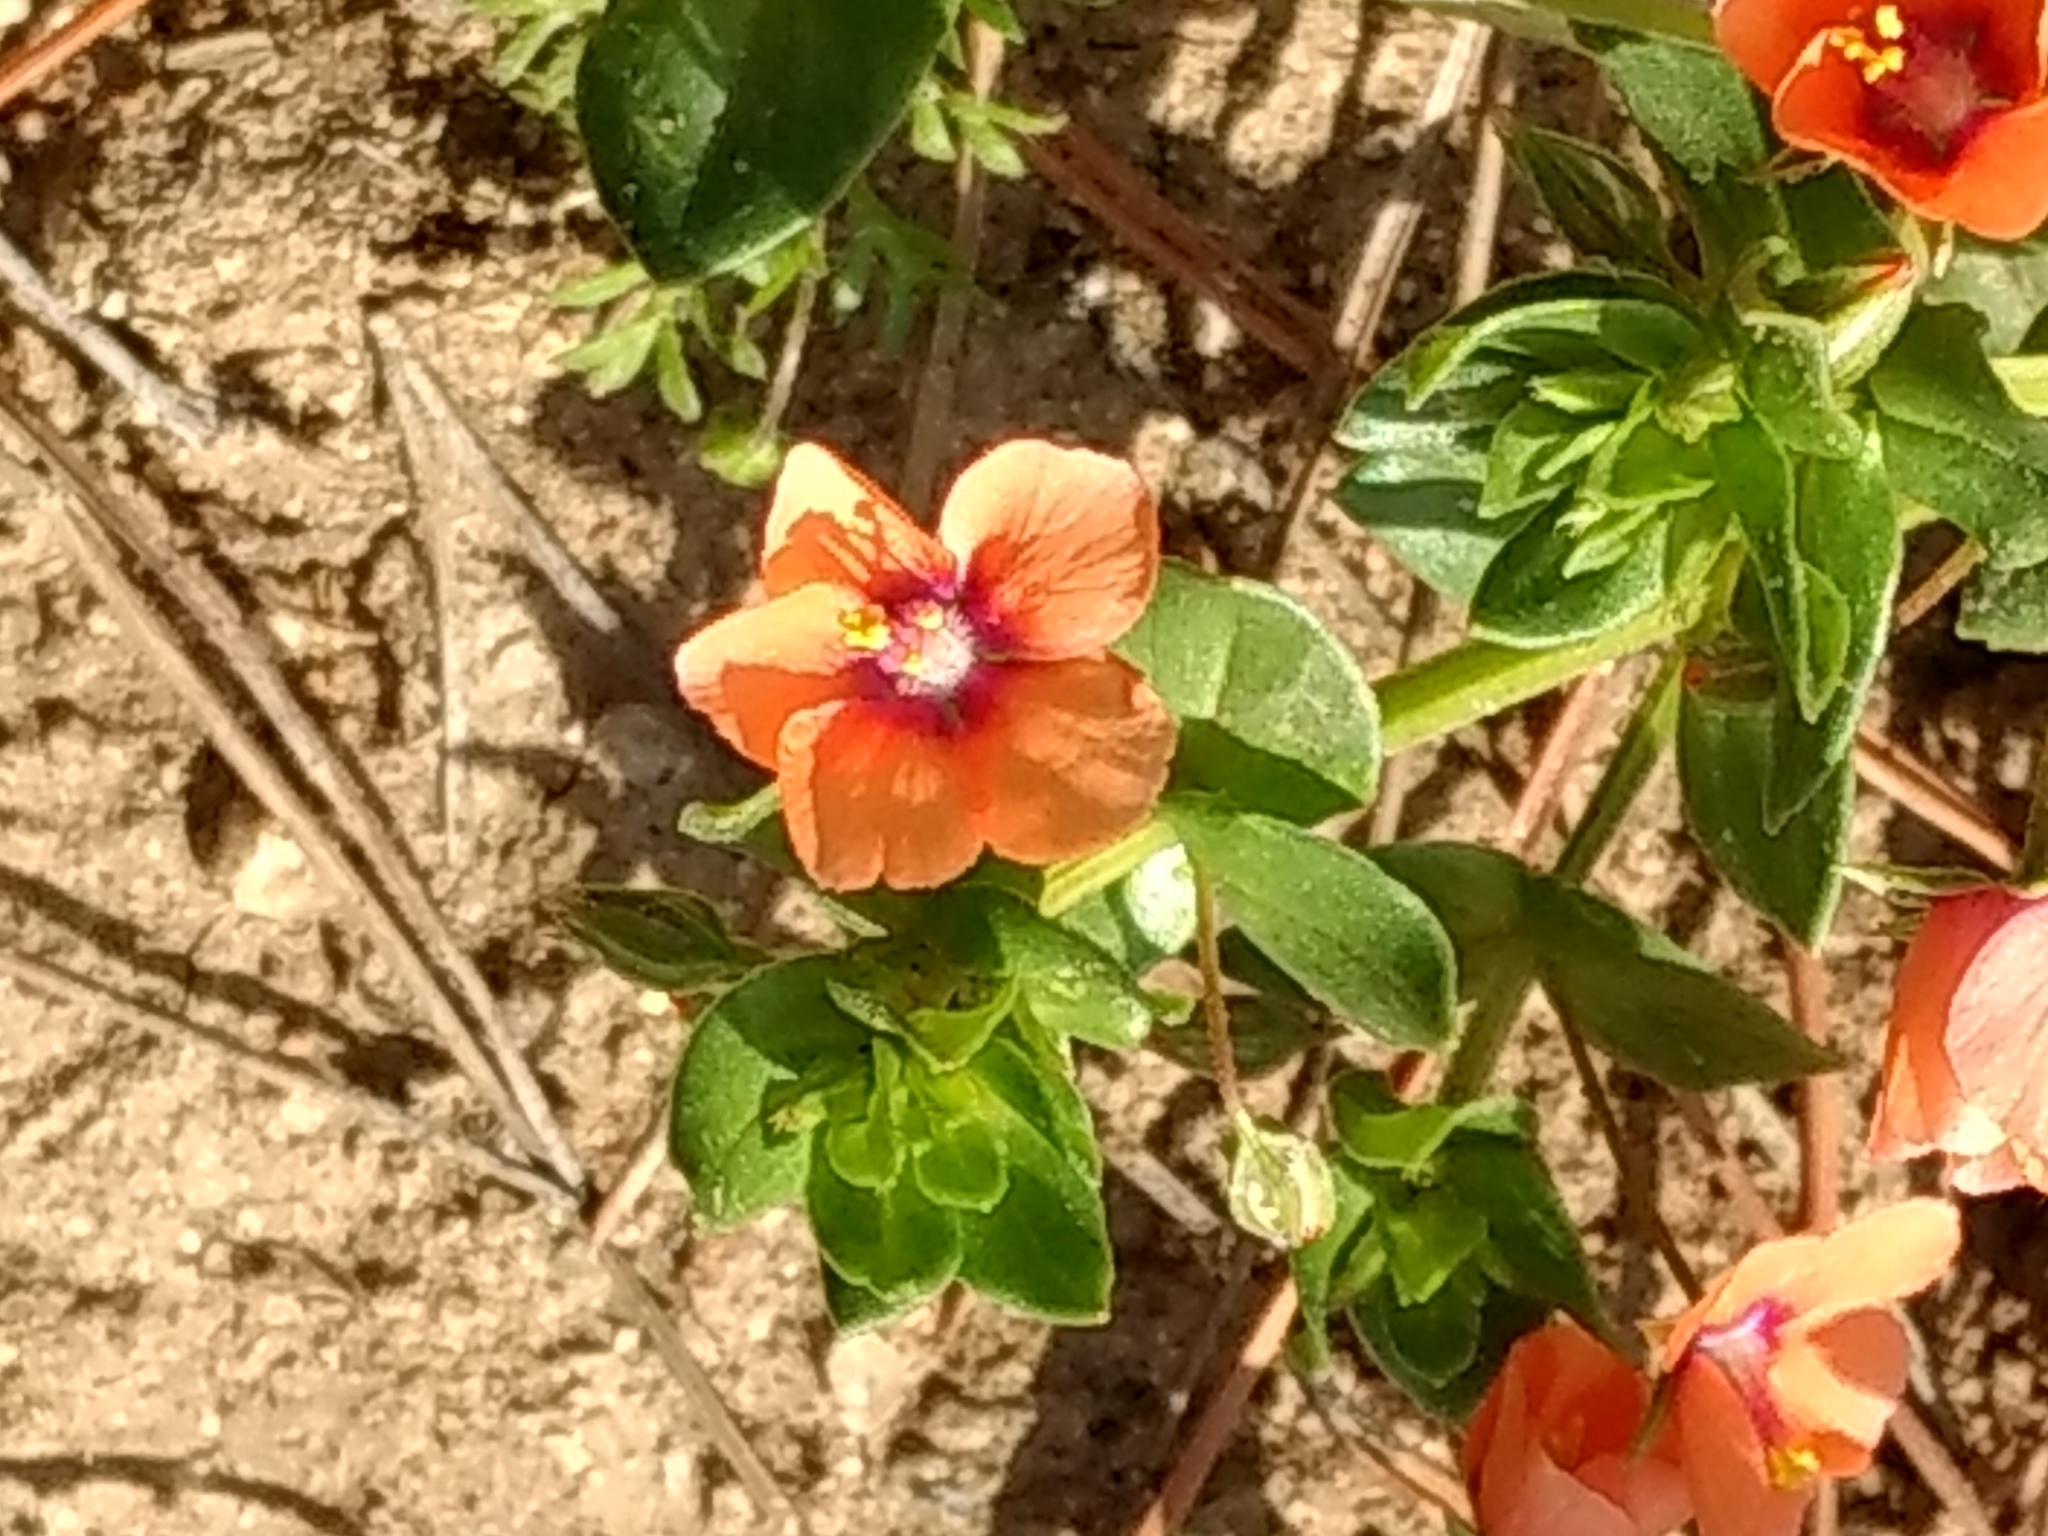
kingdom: Plantae
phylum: Tracheophyta
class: Magnoliopsida
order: Ericales
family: Primulaceae
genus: Lysimachia
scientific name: Lysimachia arvensis
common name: Scarlet pimpernel
